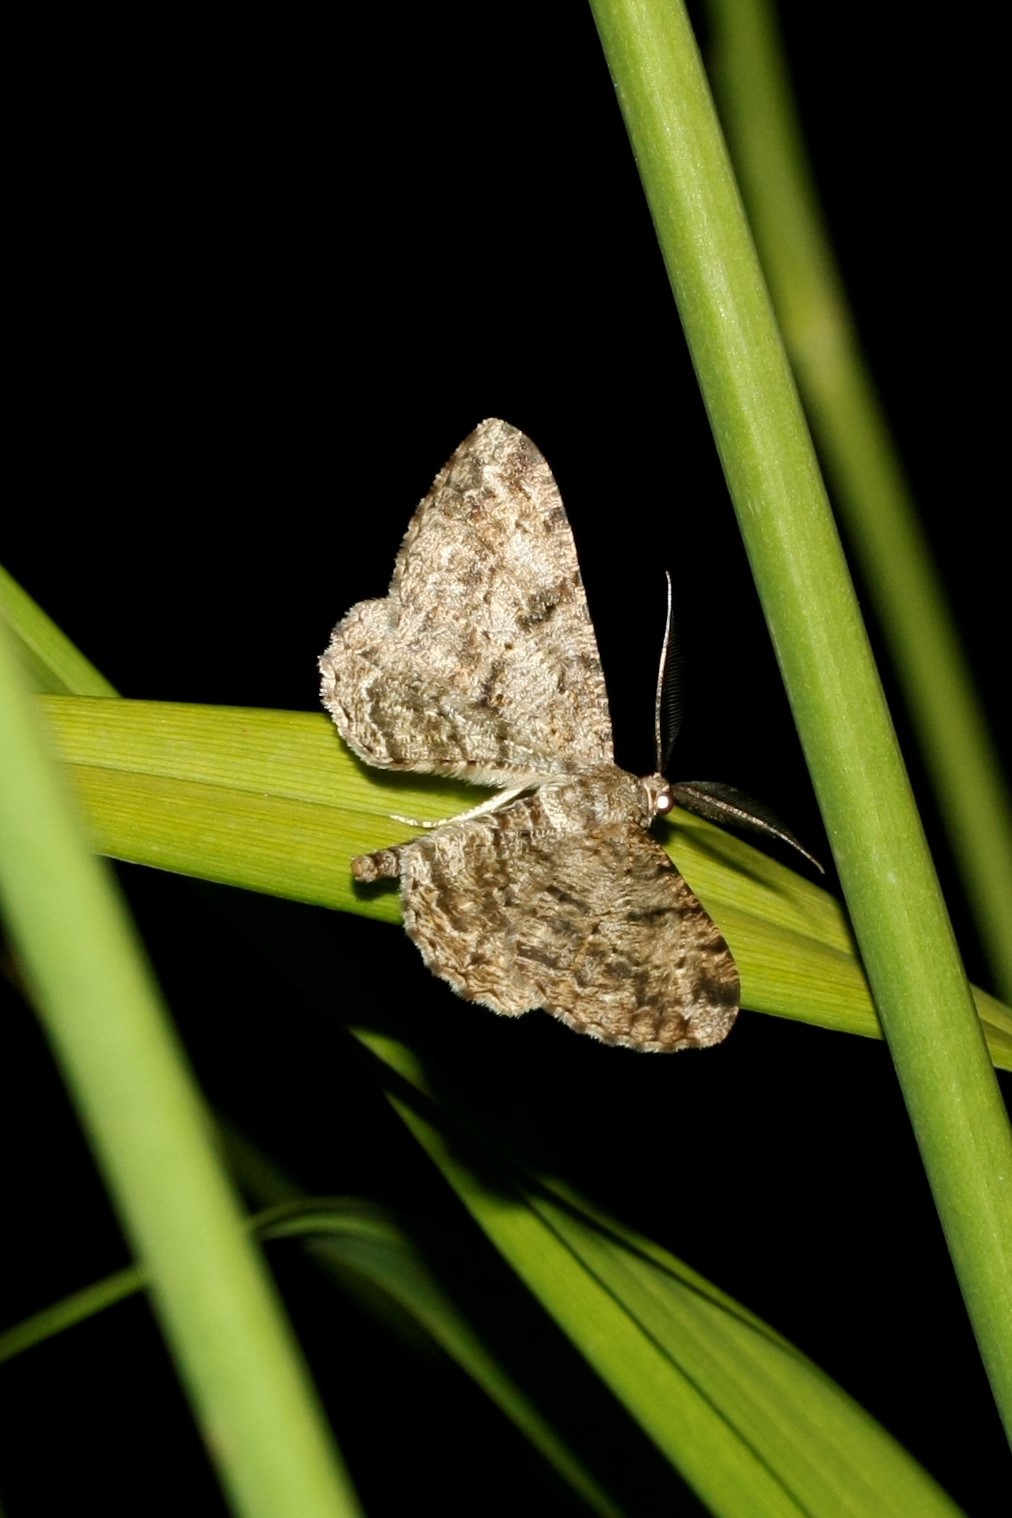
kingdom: Animalia
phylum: Arthropoda
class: Insecta
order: Lepidoptera
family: Geometridae
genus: Peribatodes
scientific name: Peribatodes rhomboidaria
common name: Willow beauty
